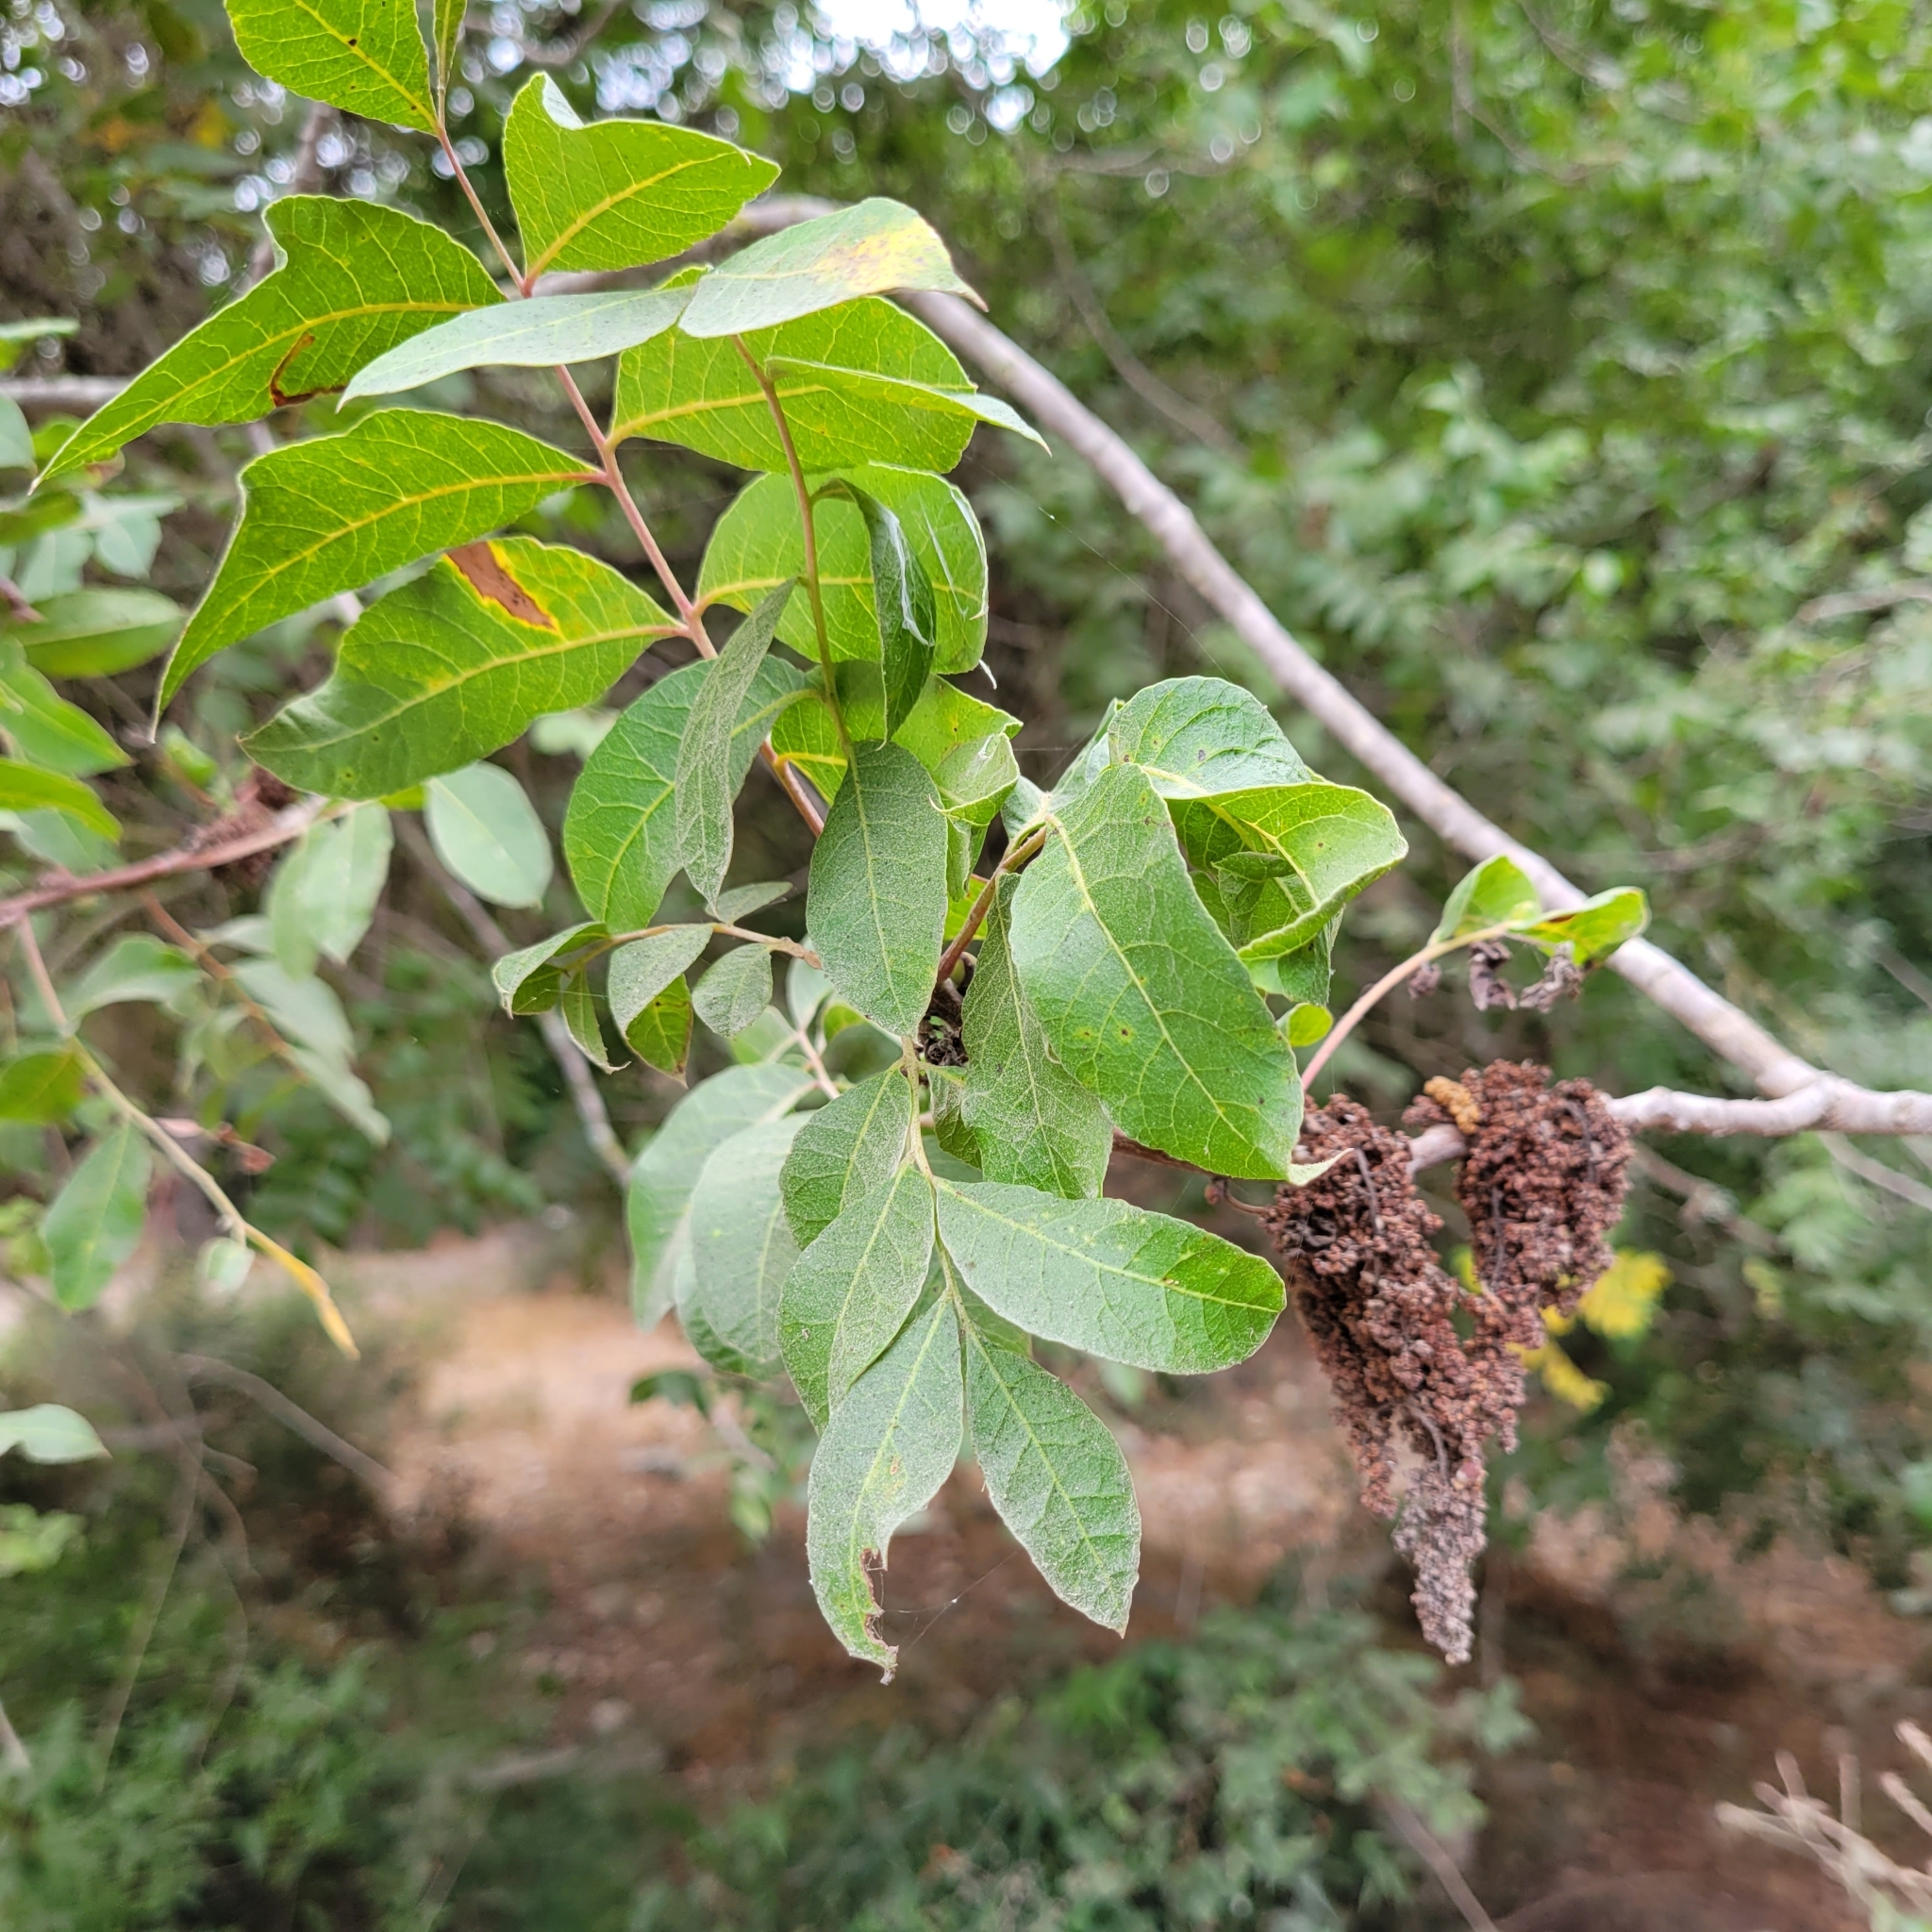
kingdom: Plantae
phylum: Tracheophyta
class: Magnoliopsida
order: Sapindales
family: Anacardiaceae
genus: Pistacia
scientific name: Pistacia terebinthus
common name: Terebinth
